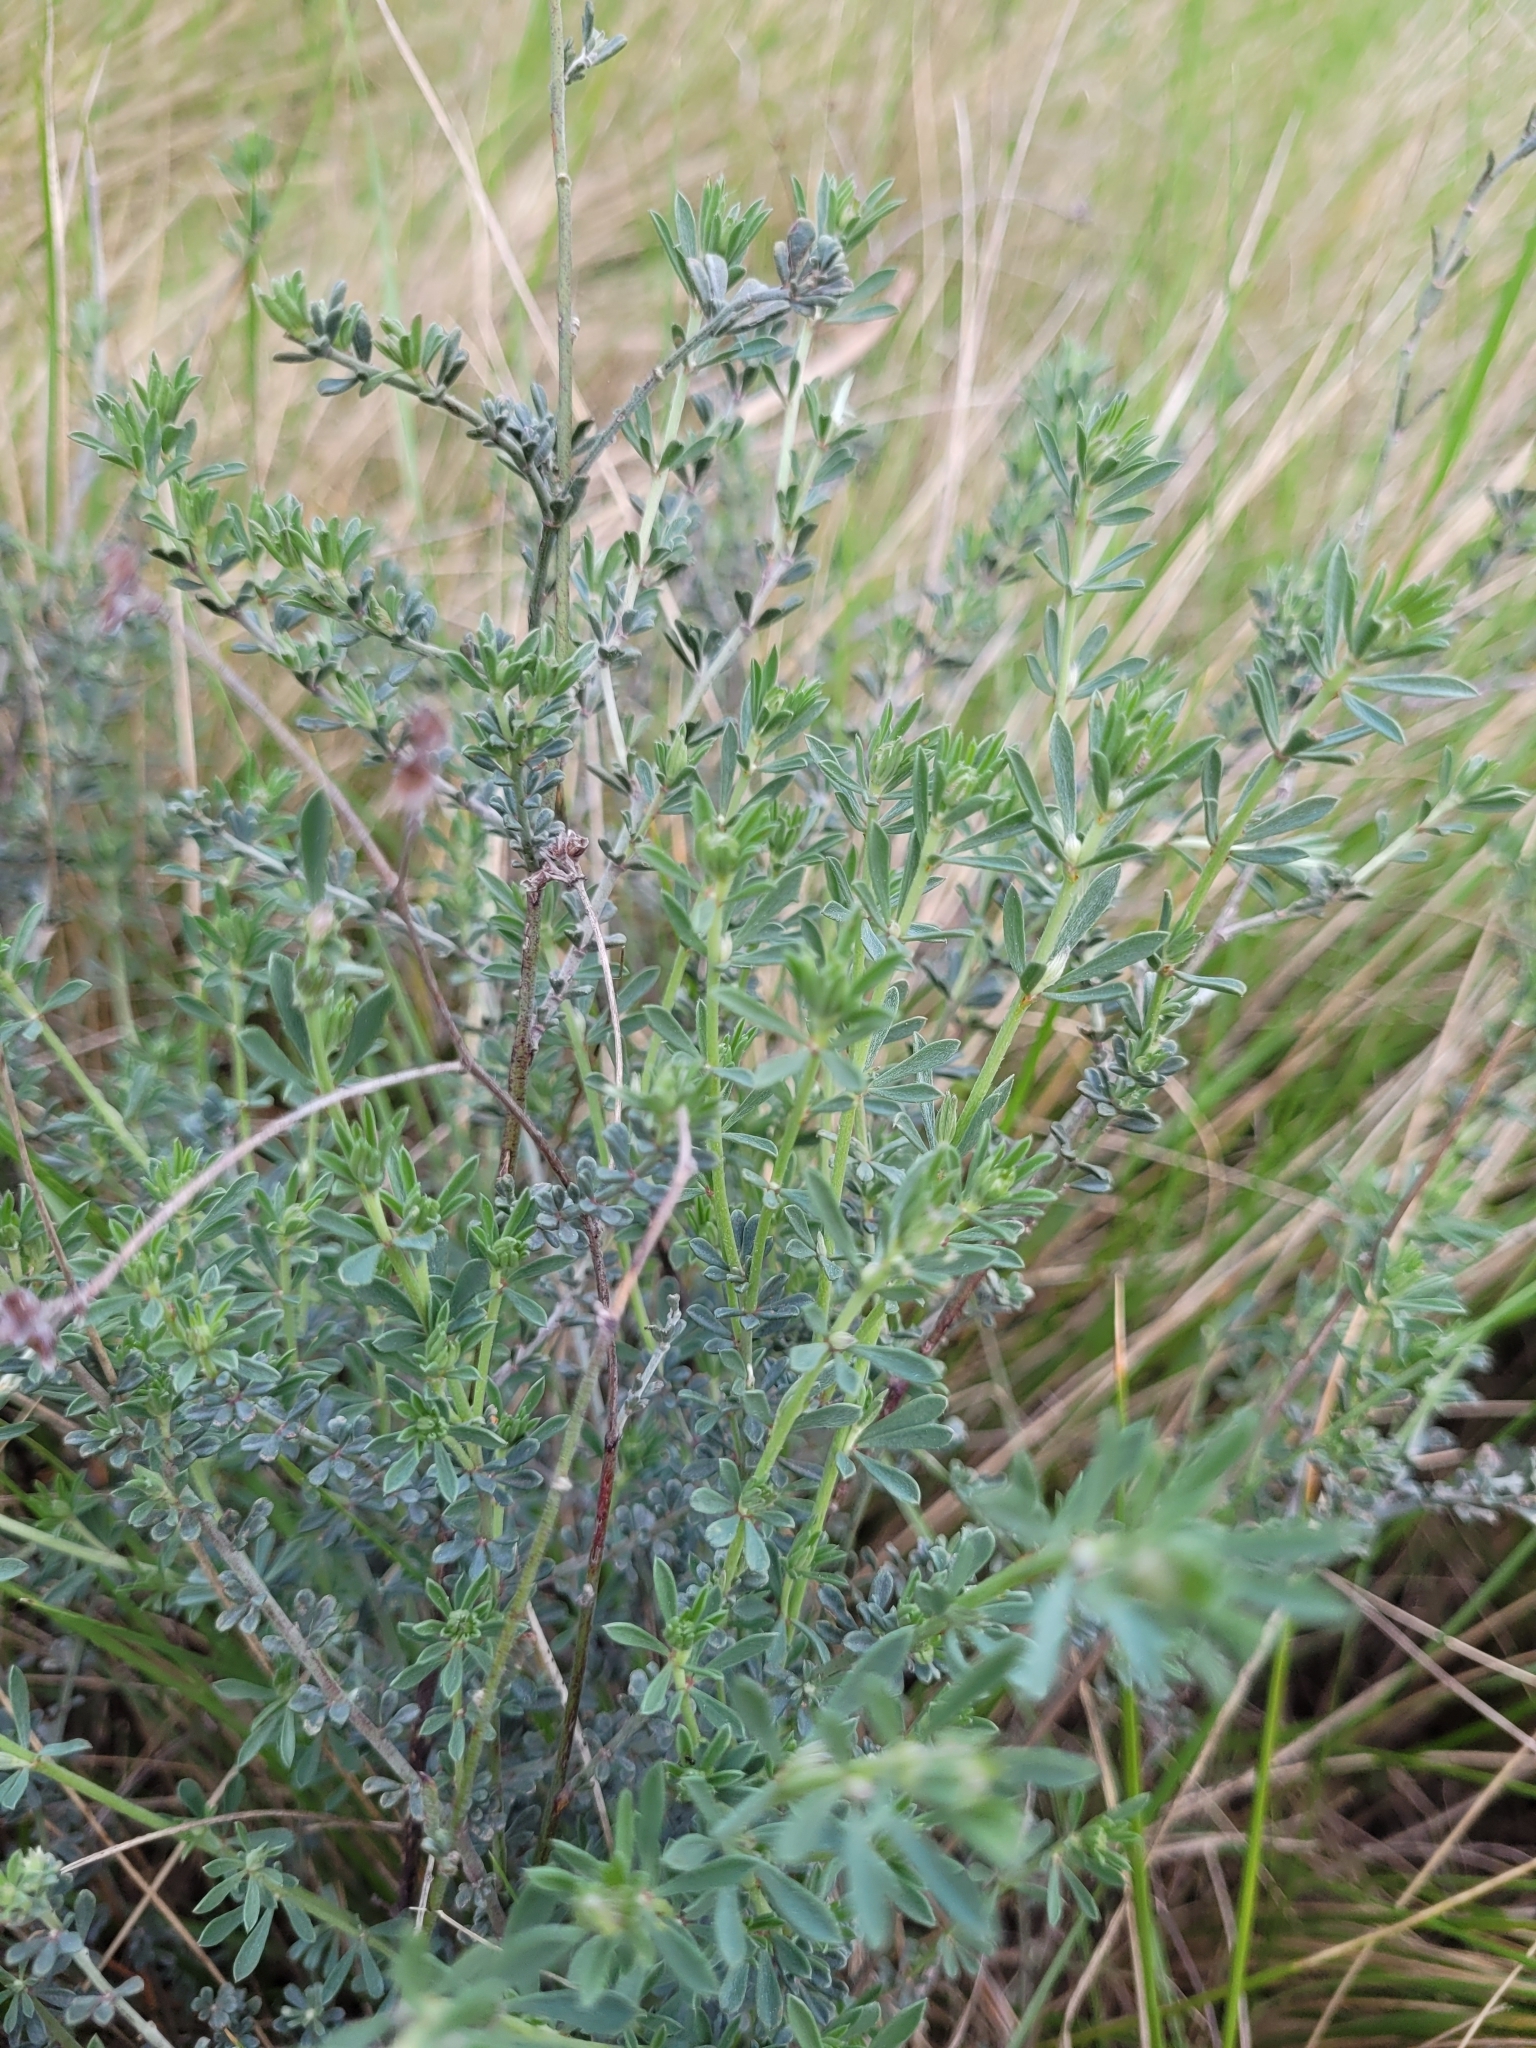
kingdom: Plantae
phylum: Tracheophyta
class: Magnoliopsida
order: Fabales
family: Fabaceae
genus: Lotus
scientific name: Lotus dorycnium
